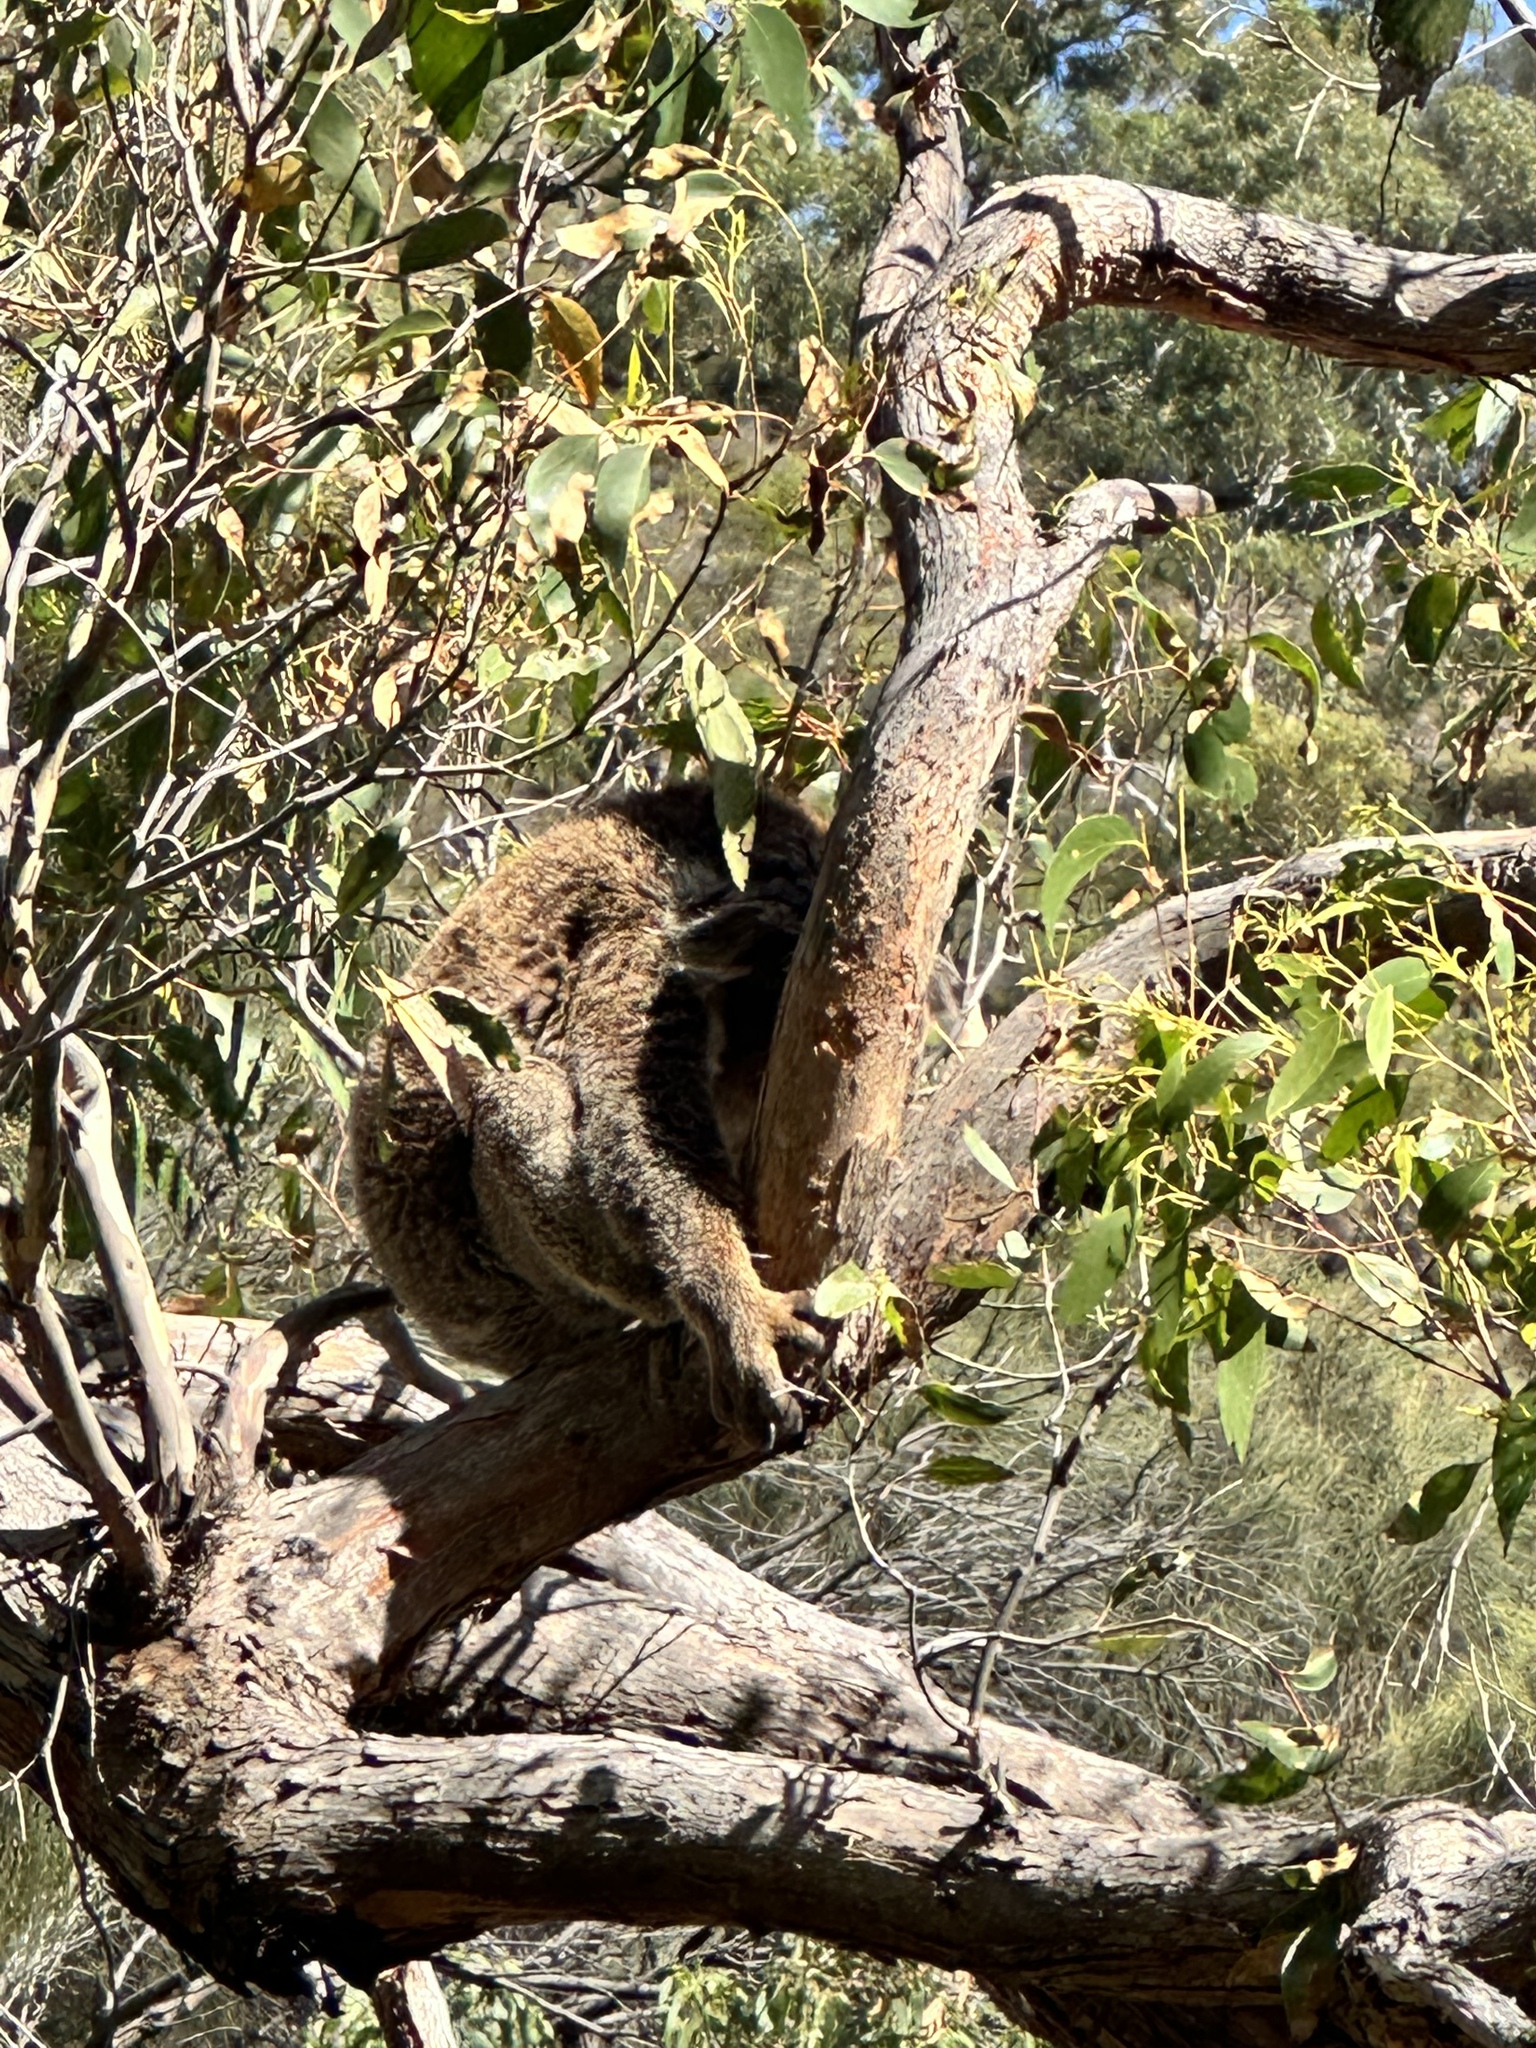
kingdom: Animalia
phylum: Chordata
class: Mammalia
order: Diprotodontia
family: Phascolarctidae
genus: Phascolarctos
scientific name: Phascolarctos cinereus
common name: Koala
